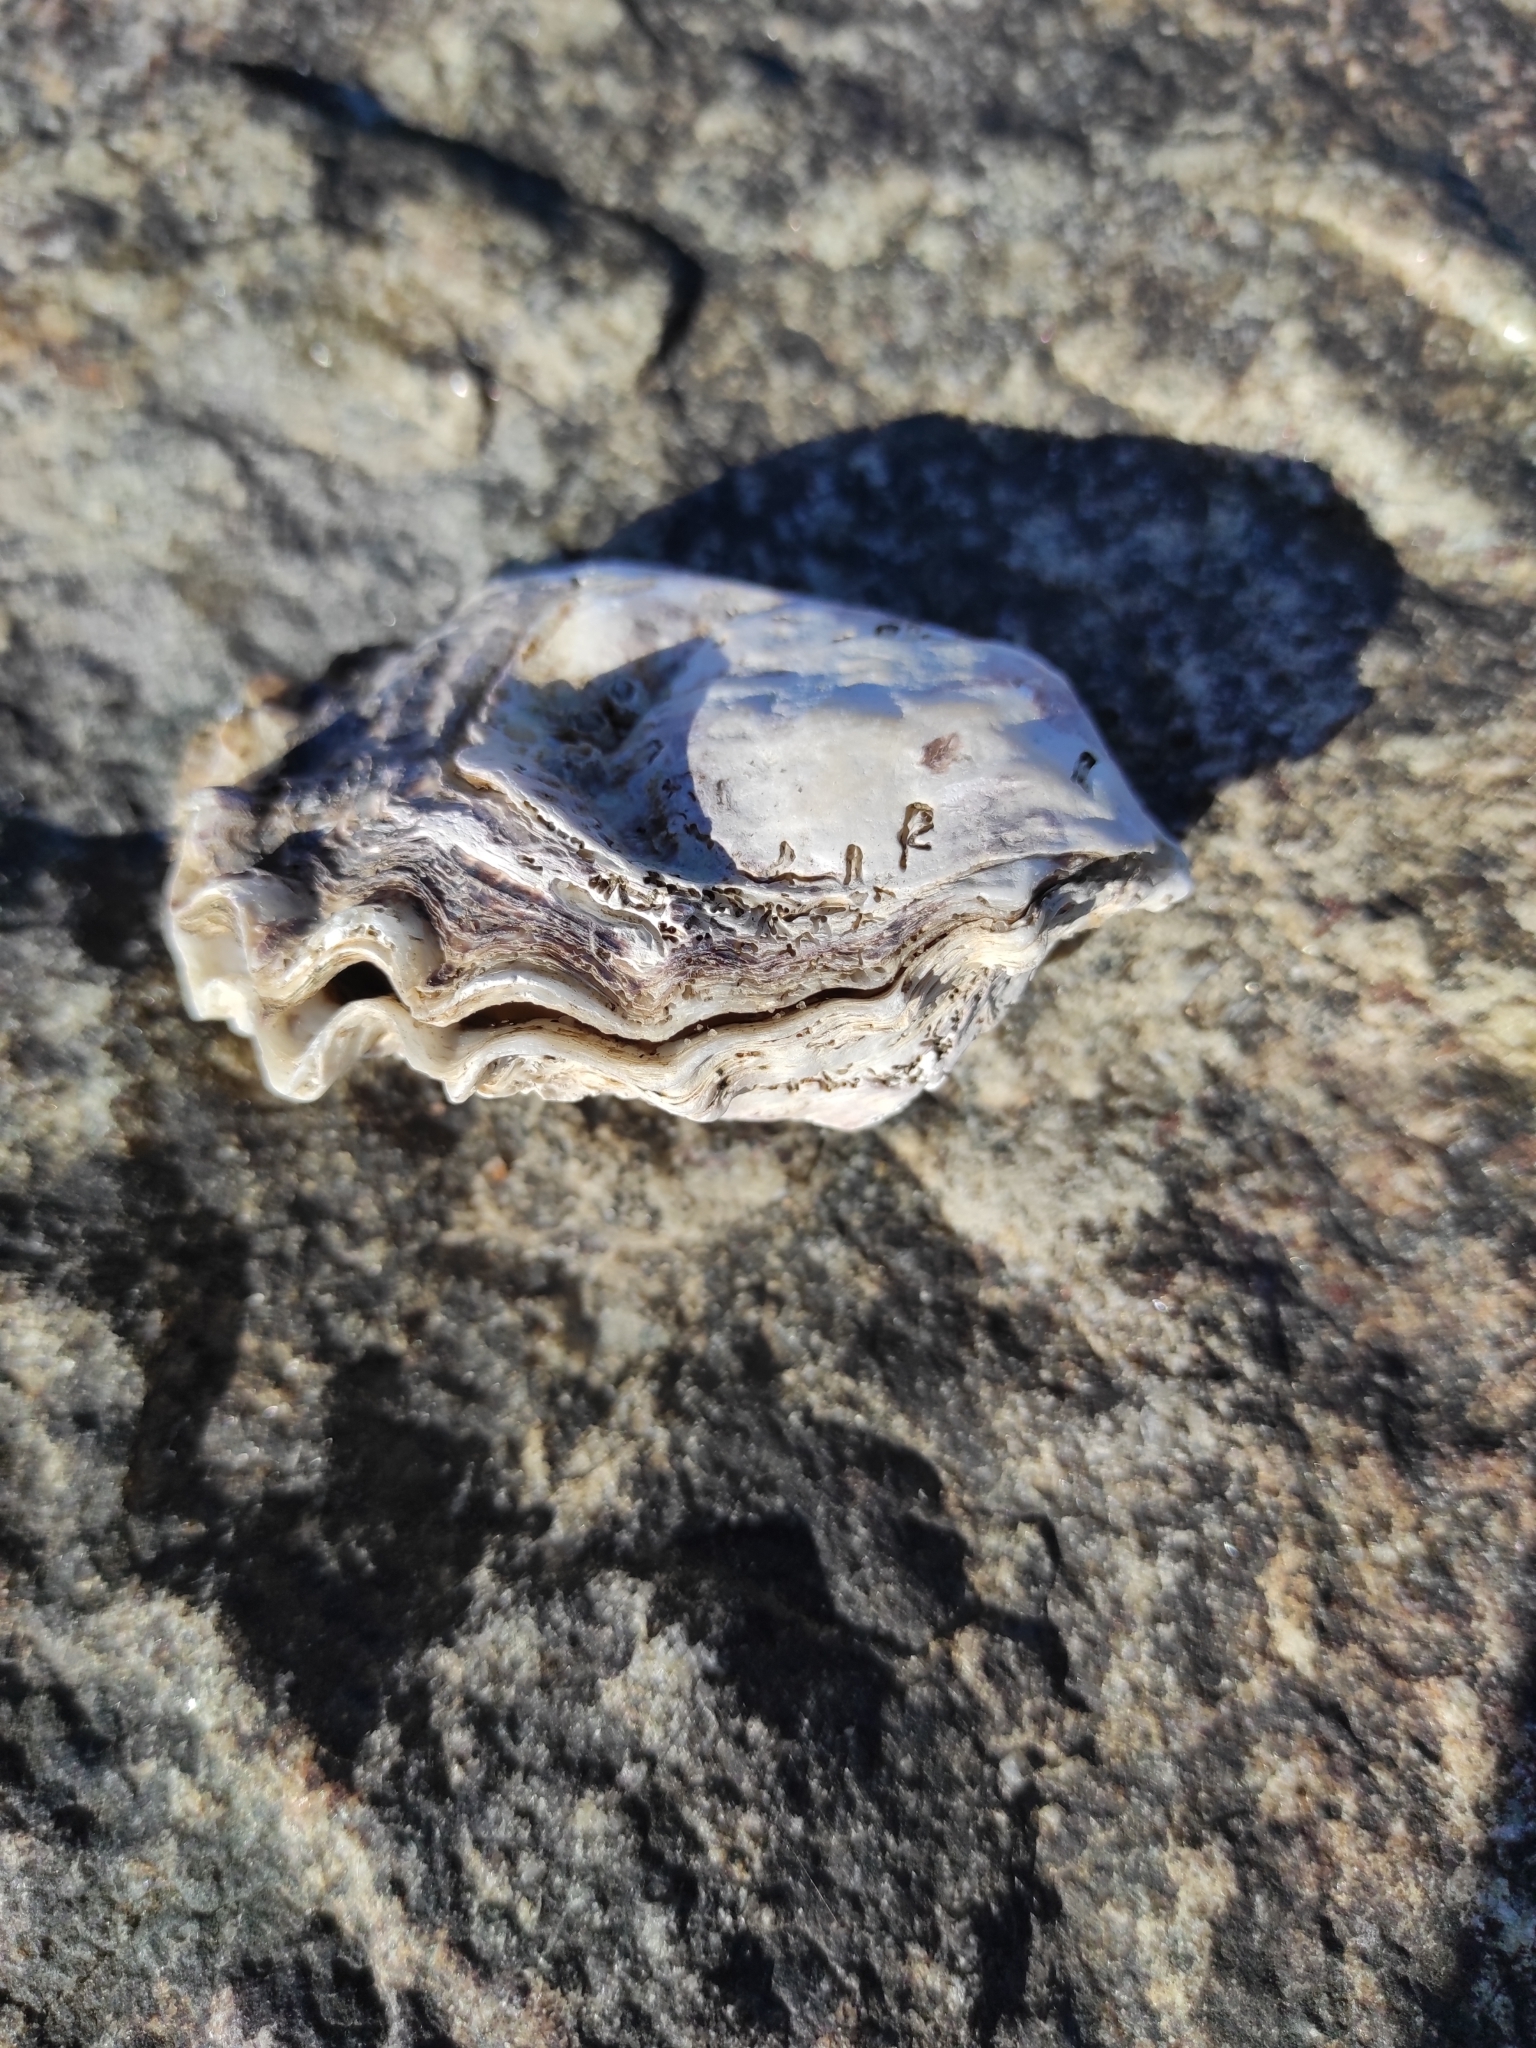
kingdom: Animalia
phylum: Mollusca
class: Bivalvia
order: Ostreida
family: Ostreidae
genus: Magallana
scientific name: Magallana gigas
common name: Pacific oyster
